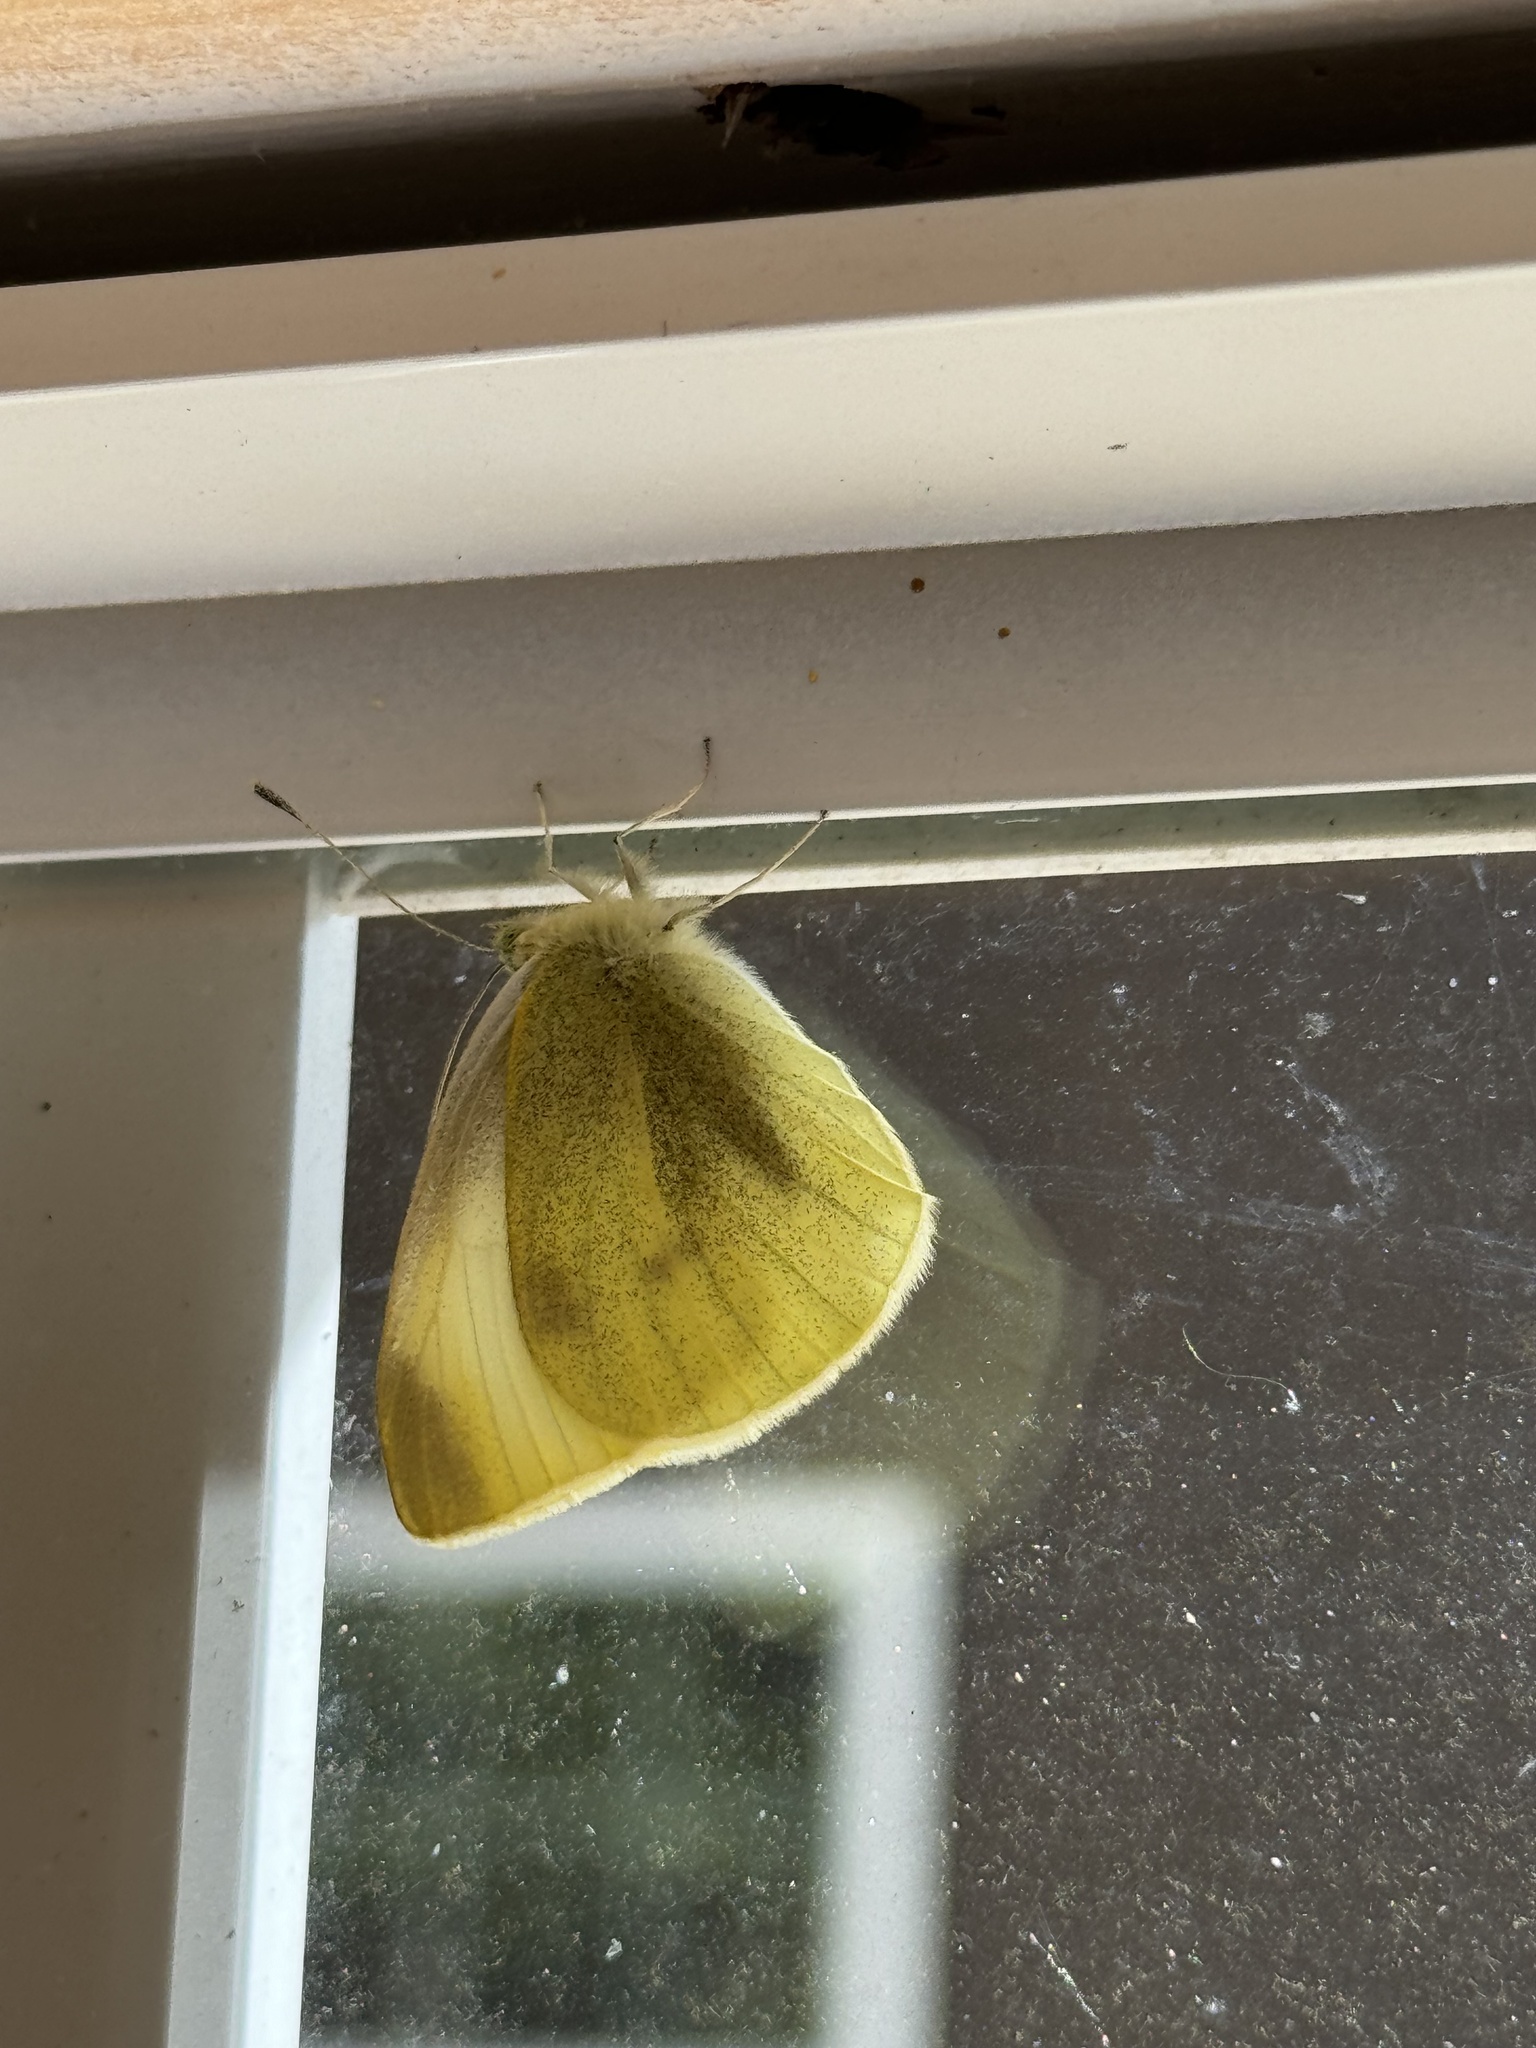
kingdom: Animalia
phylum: Arthropoda
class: Insecta
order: Lepidoptera
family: Pieridae
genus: Pieris
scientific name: Pieris rapae
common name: Small white
